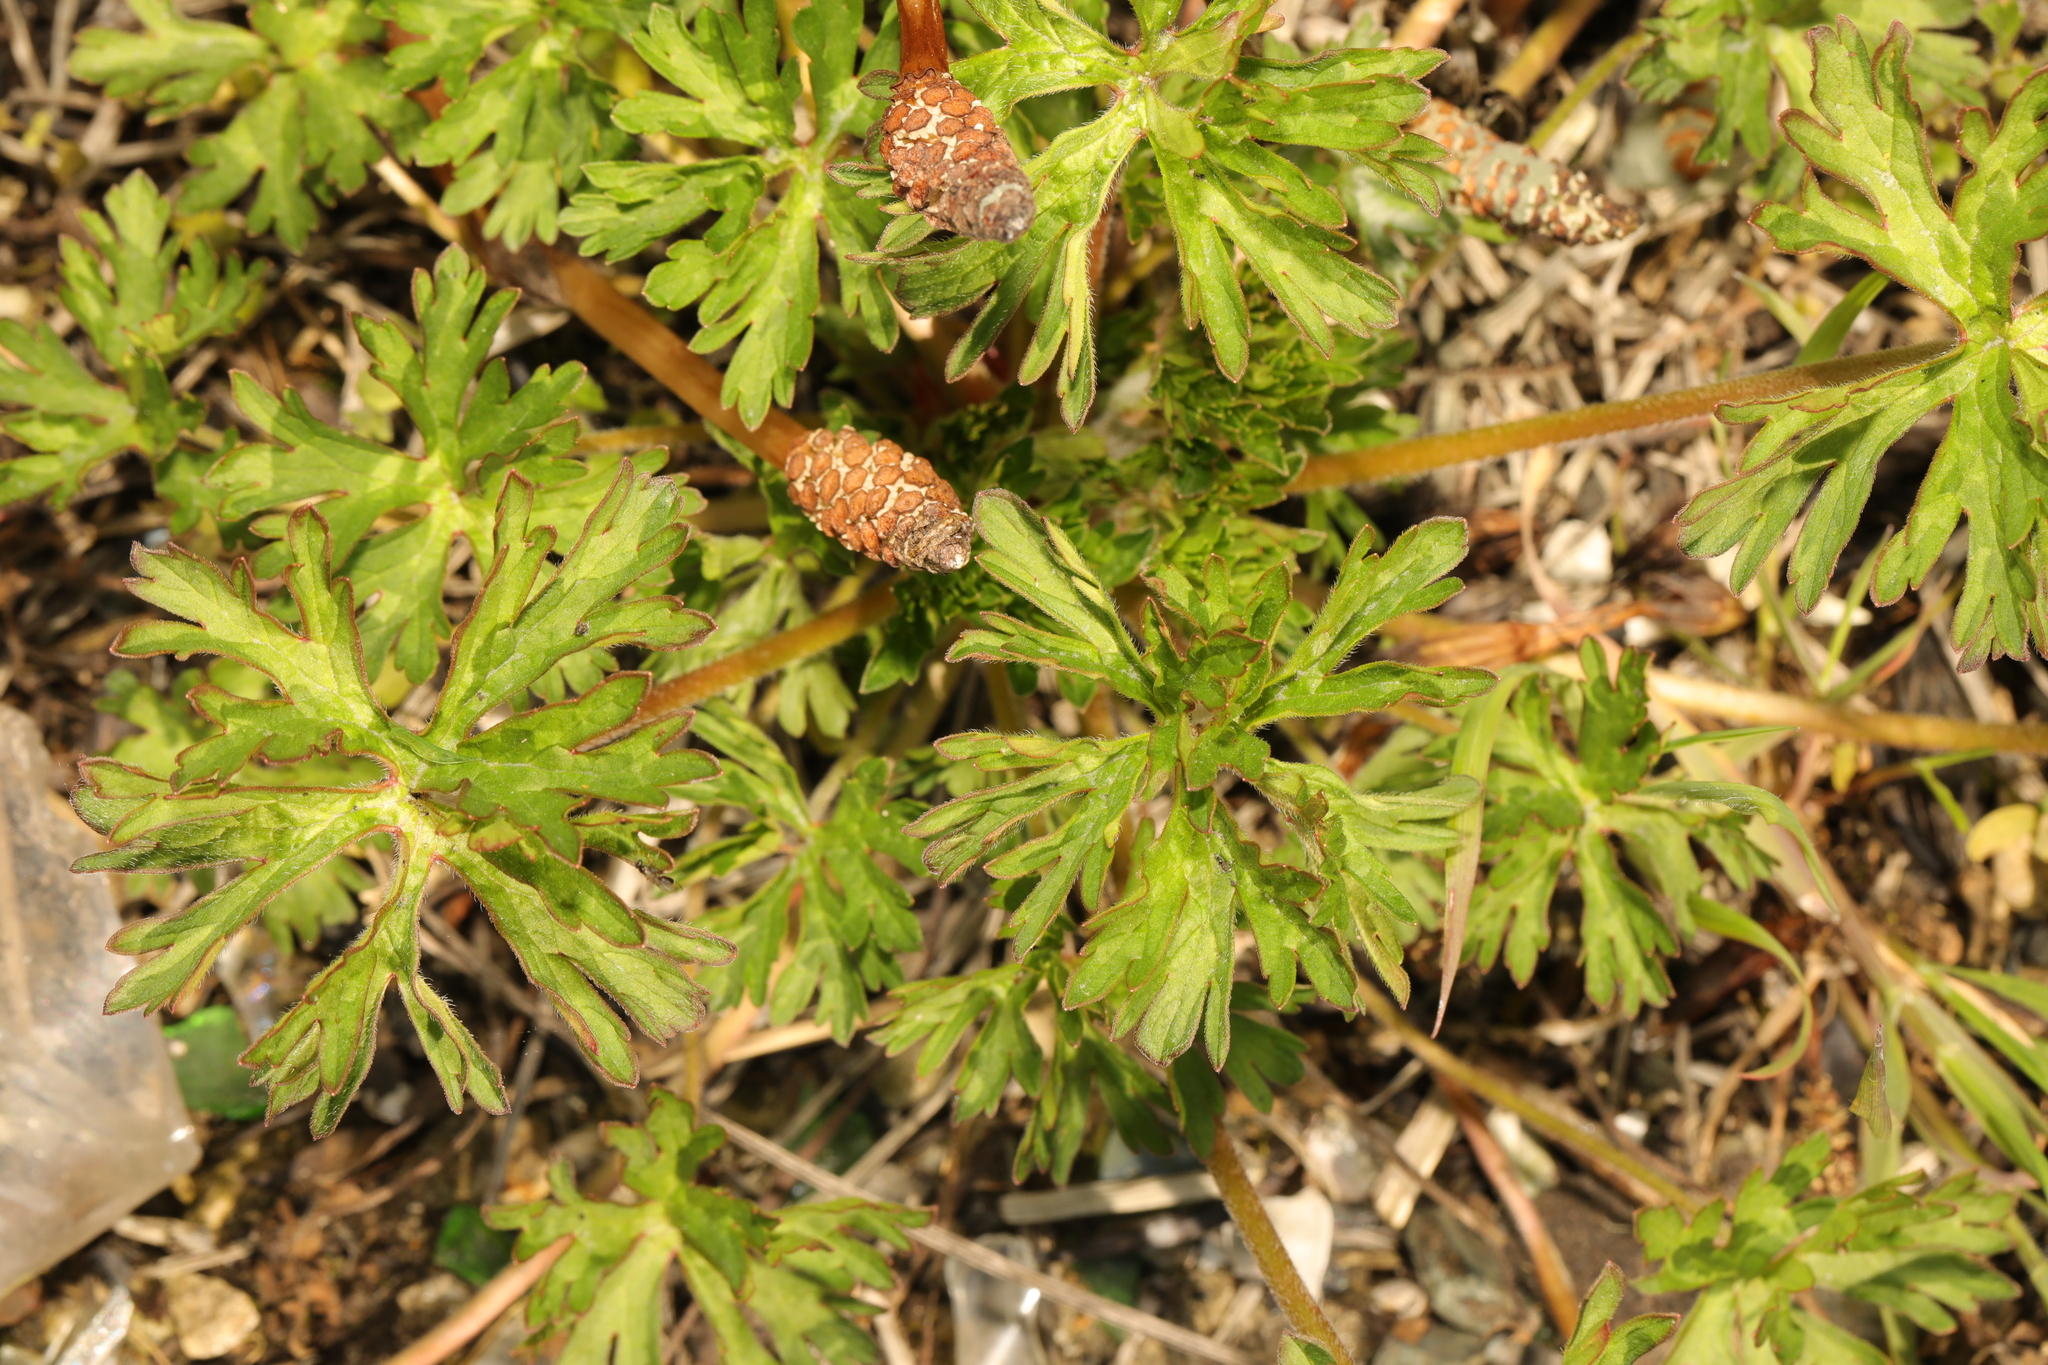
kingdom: Plantae
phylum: Tracheophyta
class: Magnoliopsida
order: Geraniales
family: Geraniaceae
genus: Geranium
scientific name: Geranium dissectum
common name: Cut-leaved crane's-bill
